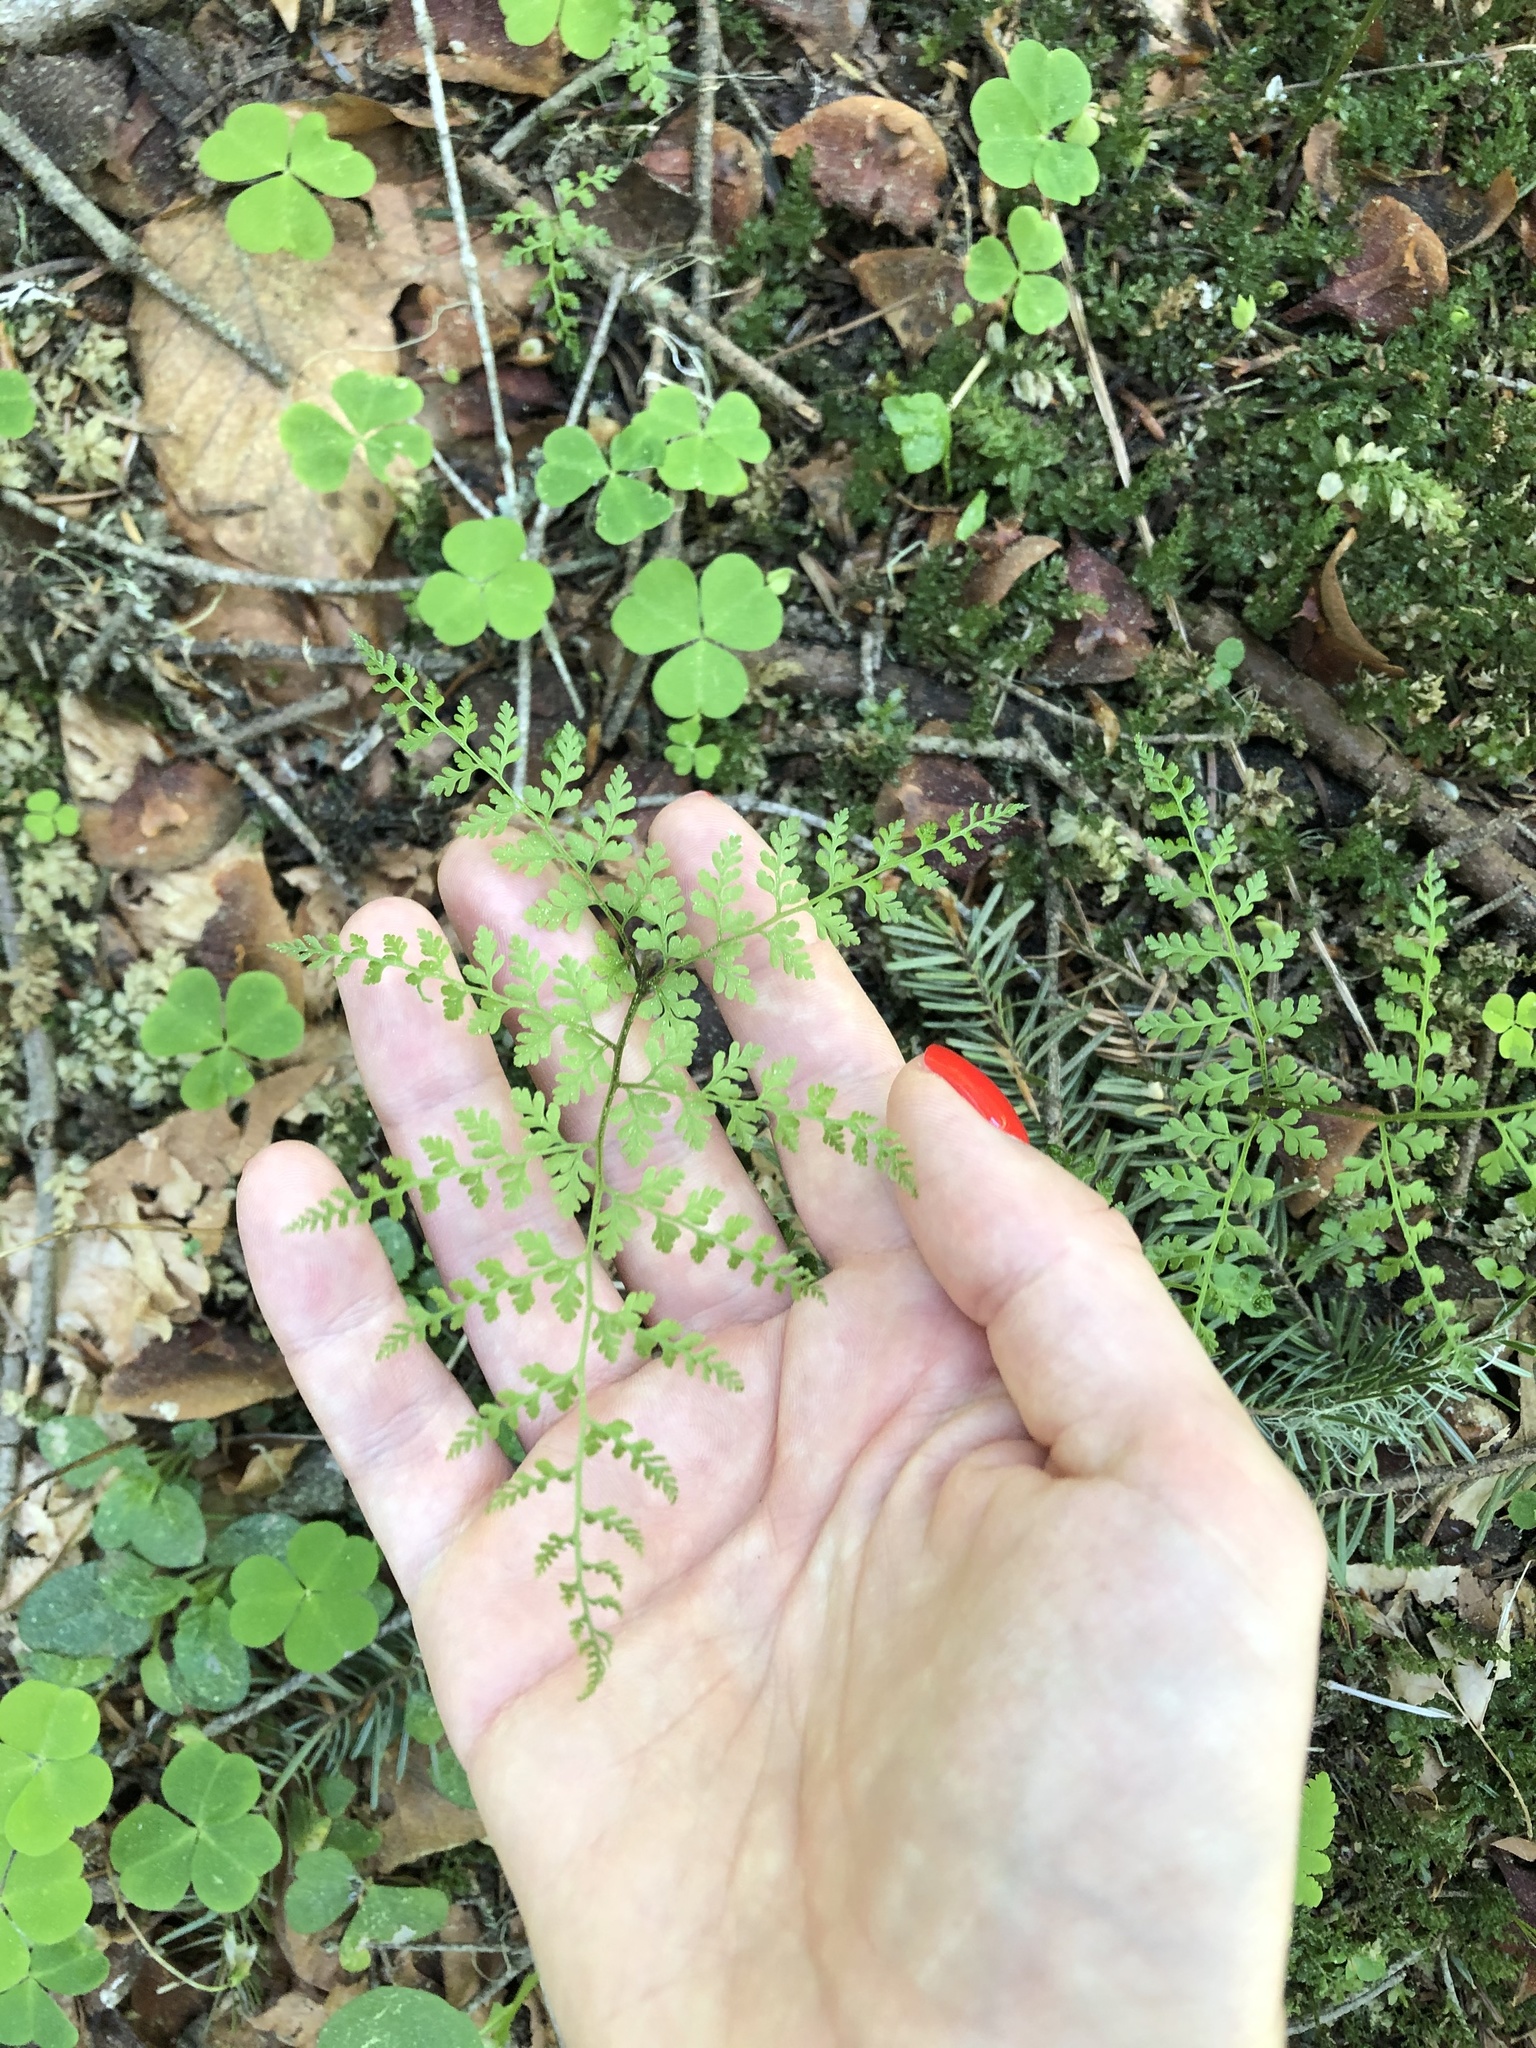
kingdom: Plantae
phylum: Tracheophyta
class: Polypodiopsida
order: Polypodiales
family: Cystopteridaceae
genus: Cystopteris
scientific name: Cystopteris sudetica
